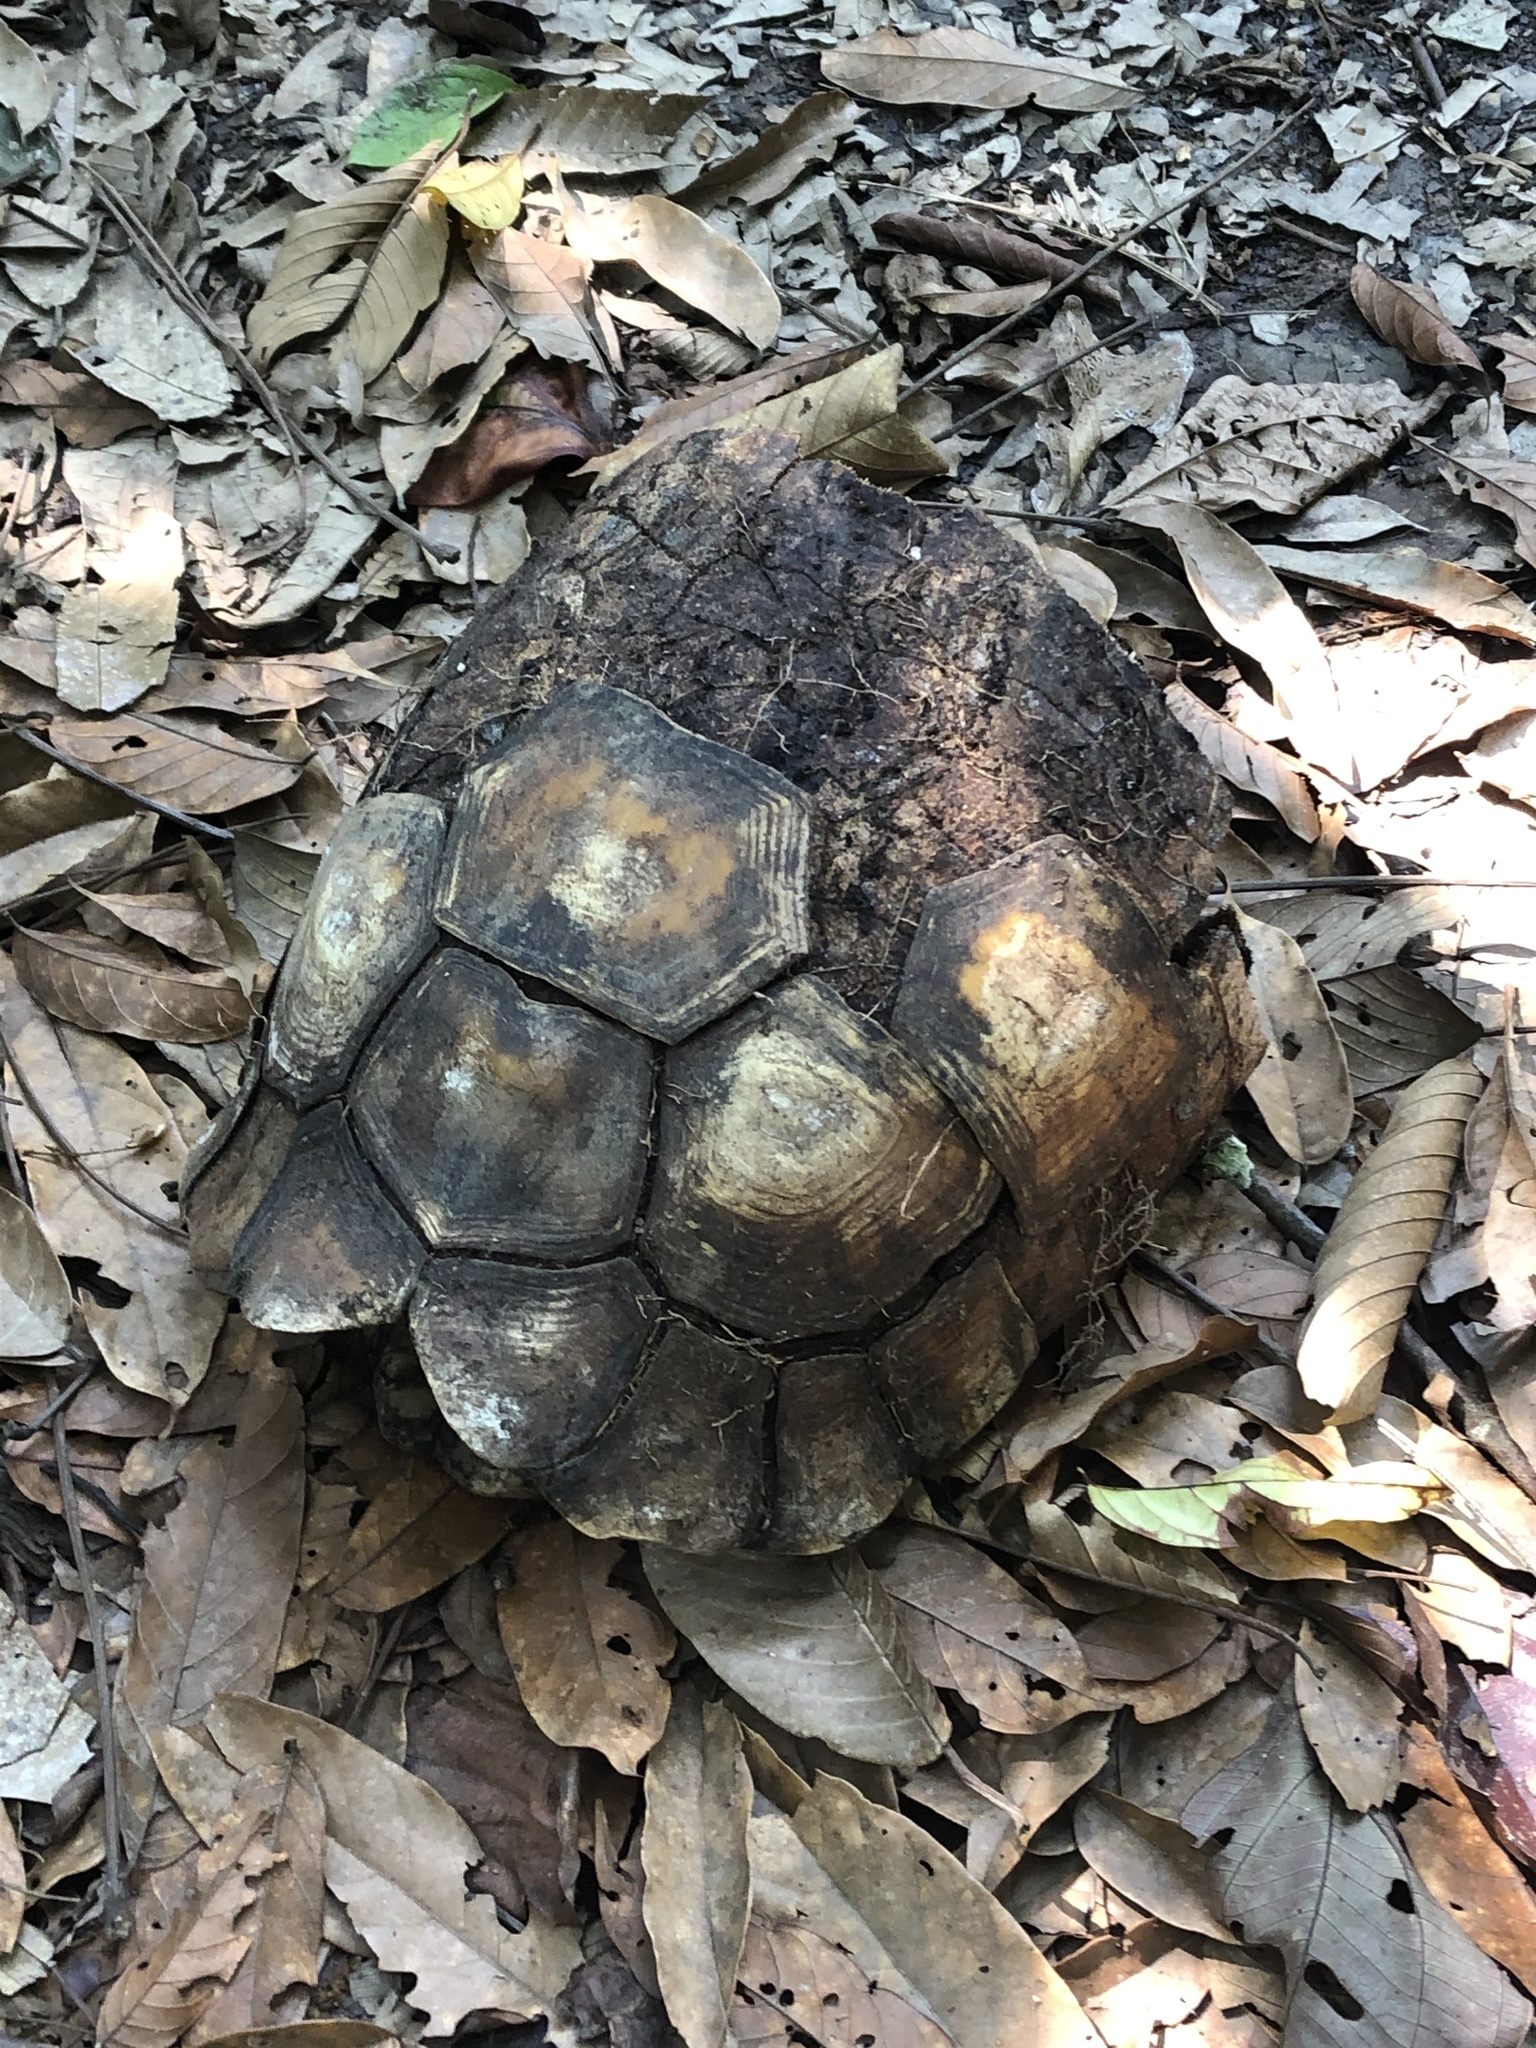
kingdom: Animalia
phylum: Chordata
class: Testudines
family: Testudinidae
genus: Chelonoidis
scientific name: Chelonoidis denticulatus
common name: Yellow-footed tortoise
